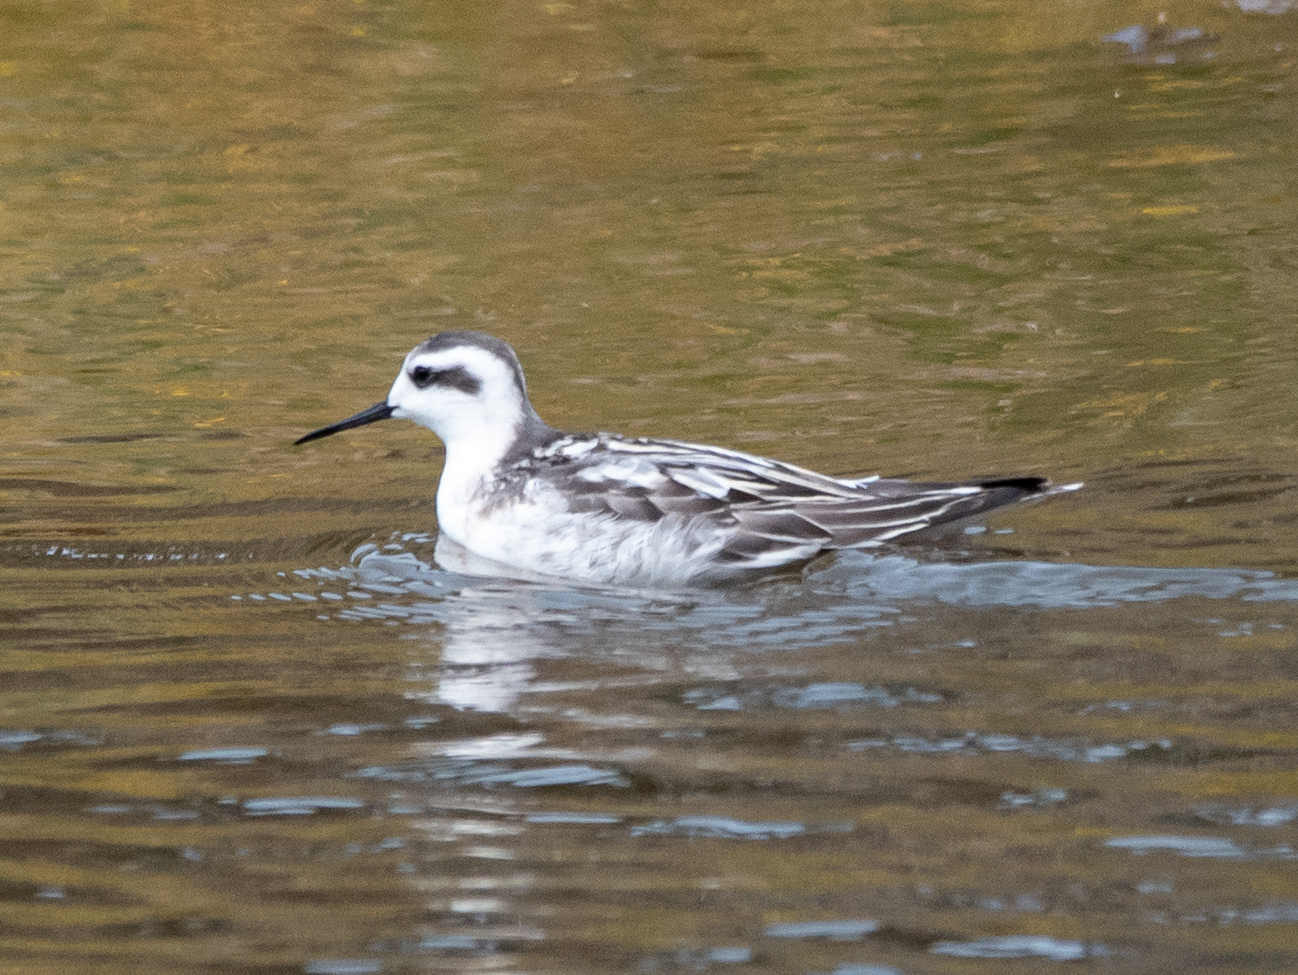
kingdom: Animalia
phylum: Chordata
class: Aves
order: Charadriiformes
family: Scolopacidae
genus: Phalaropus
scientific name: Phalaropus lobatus
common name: Red-necked phalarope
